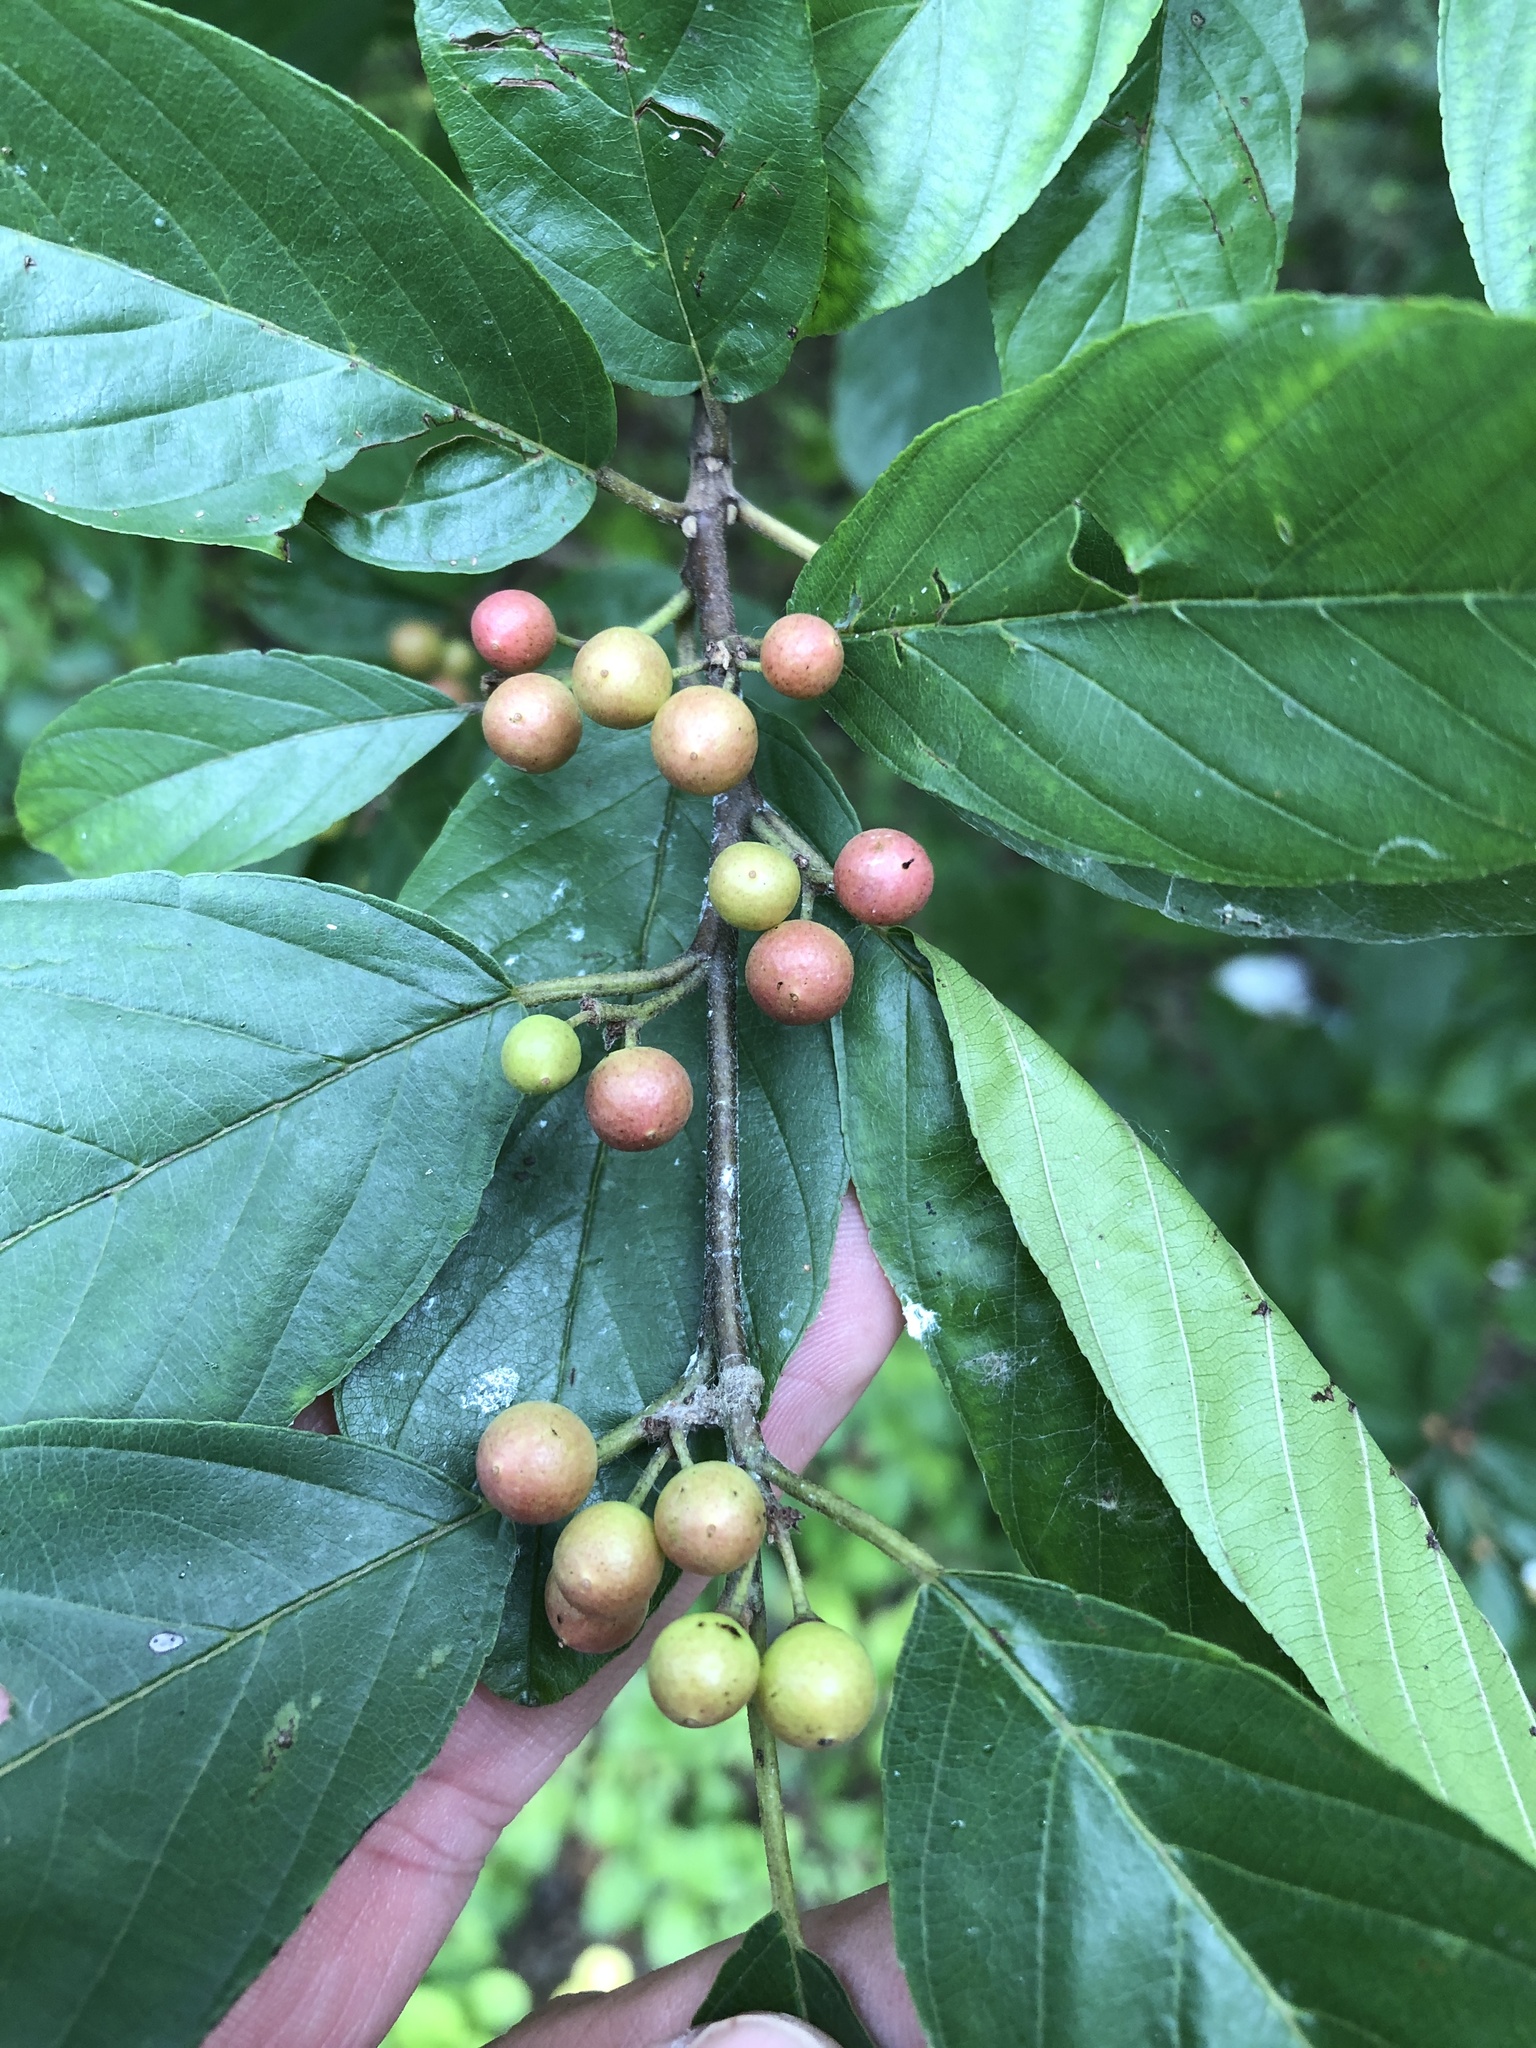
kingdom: Plantae
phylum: Tracheophyta
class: Magnoliopsida
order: Rosales
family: Rhamnaceae
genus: Frangula
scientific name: Frangula caroliniana
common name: Carolina buckthorn
